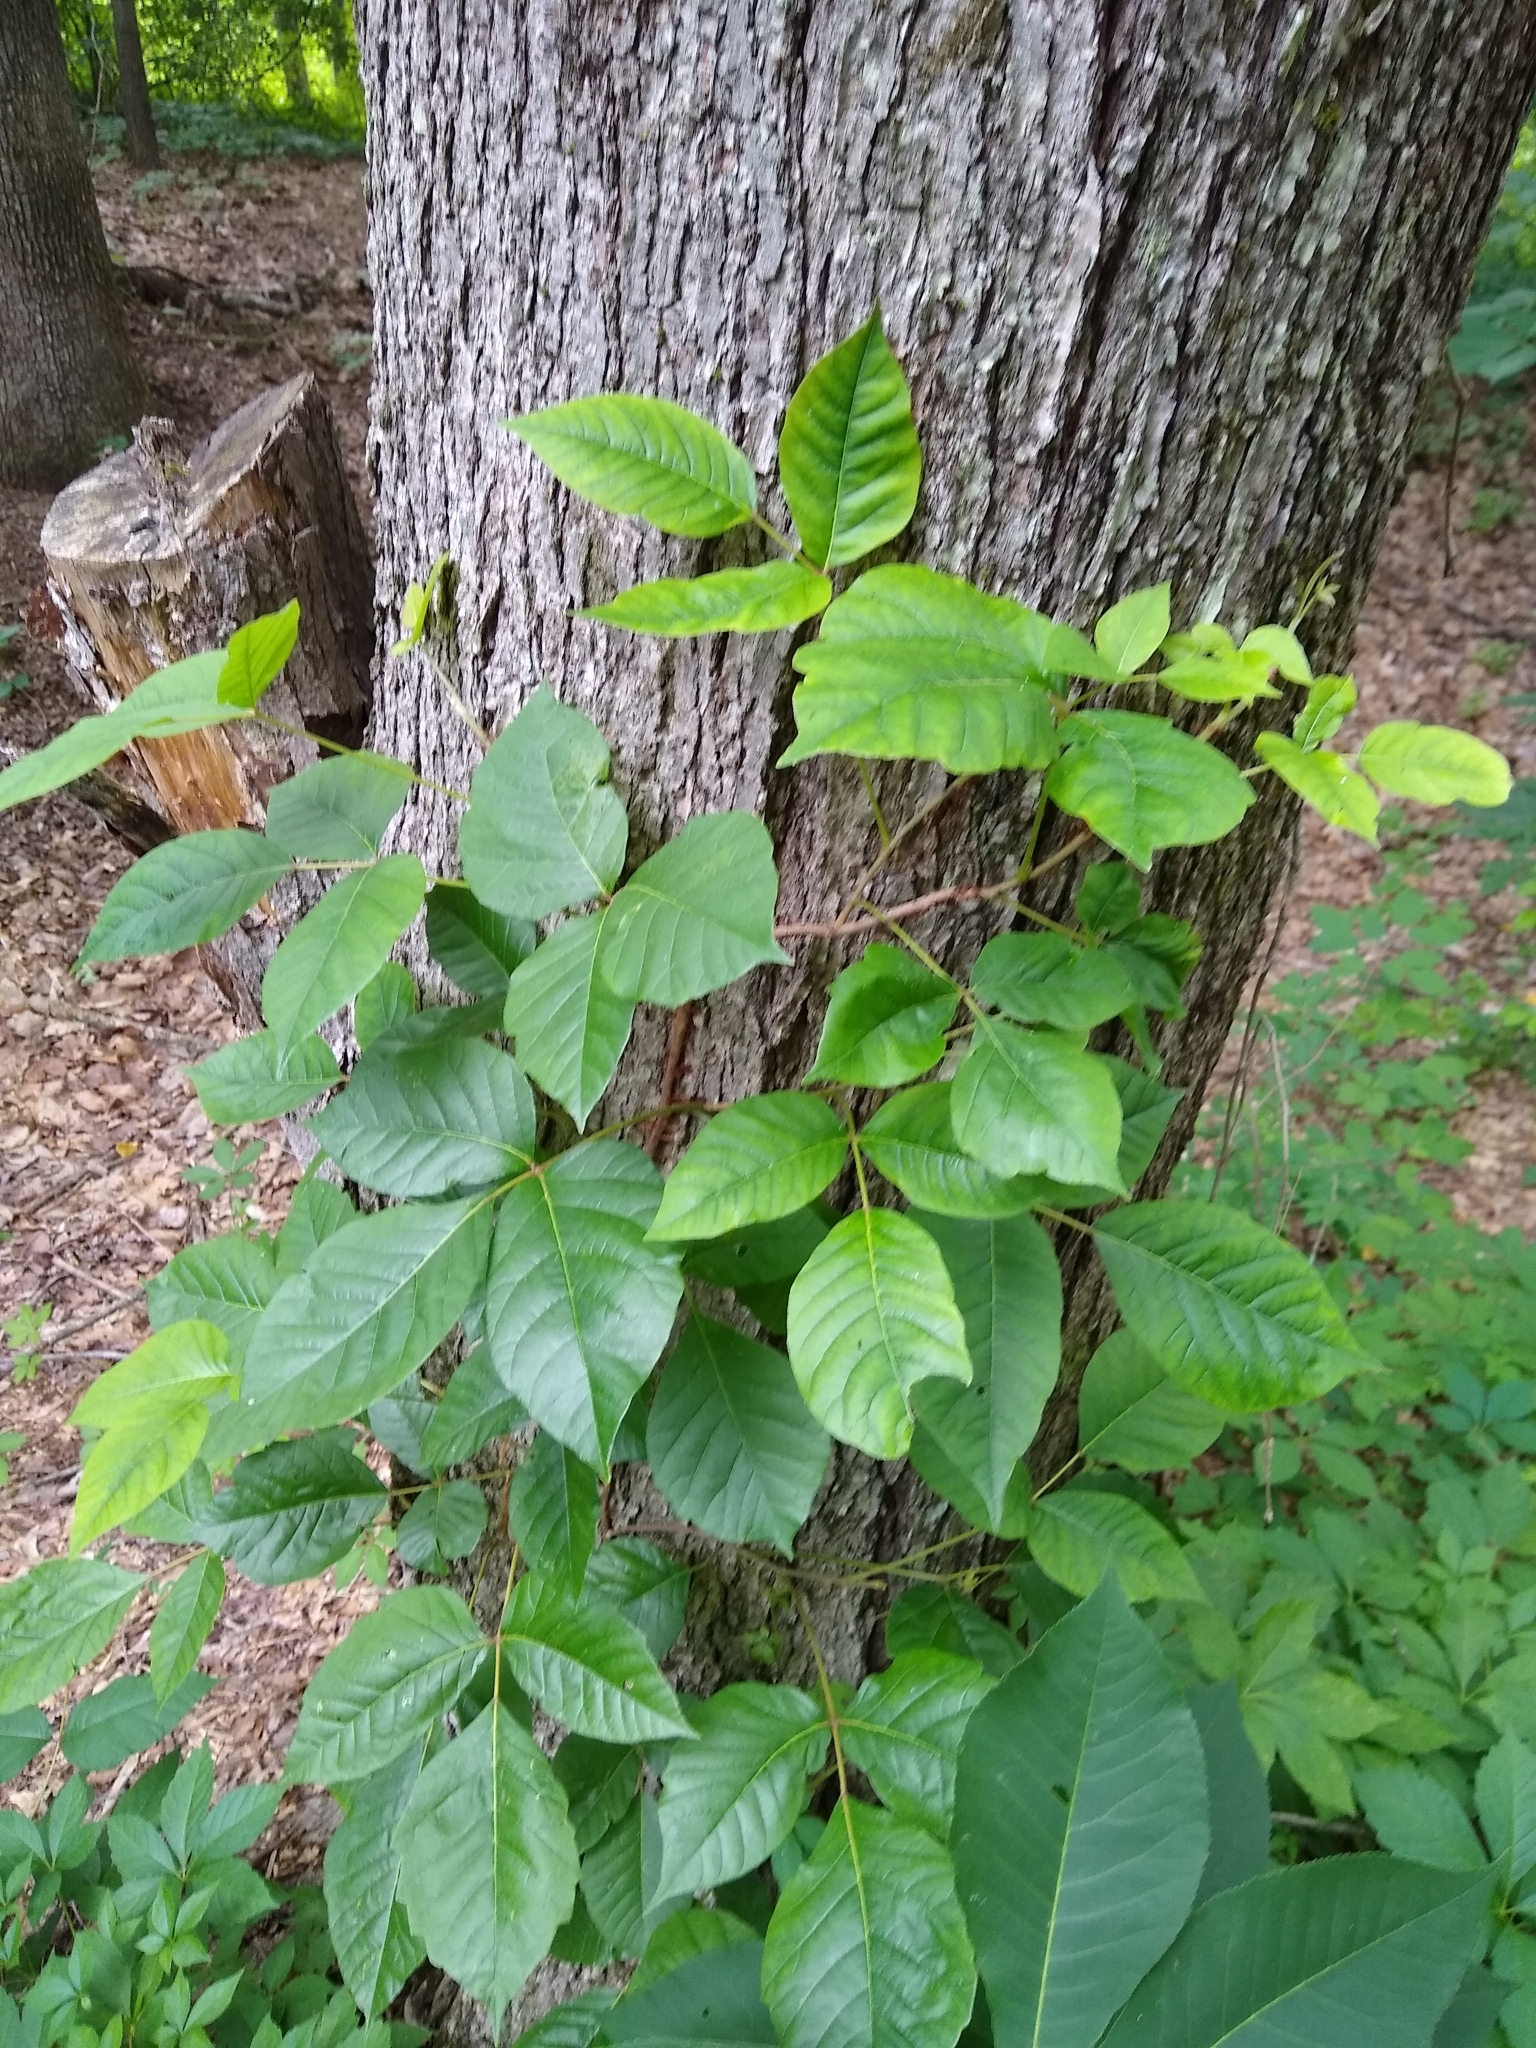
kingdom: Plantae
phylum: Tracheophyta
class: Magnoliopsida
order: Sapindales
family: Anacardiaceae
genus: Toxicodendron
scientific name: Toxicodendron radicans
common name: Poison ivy
